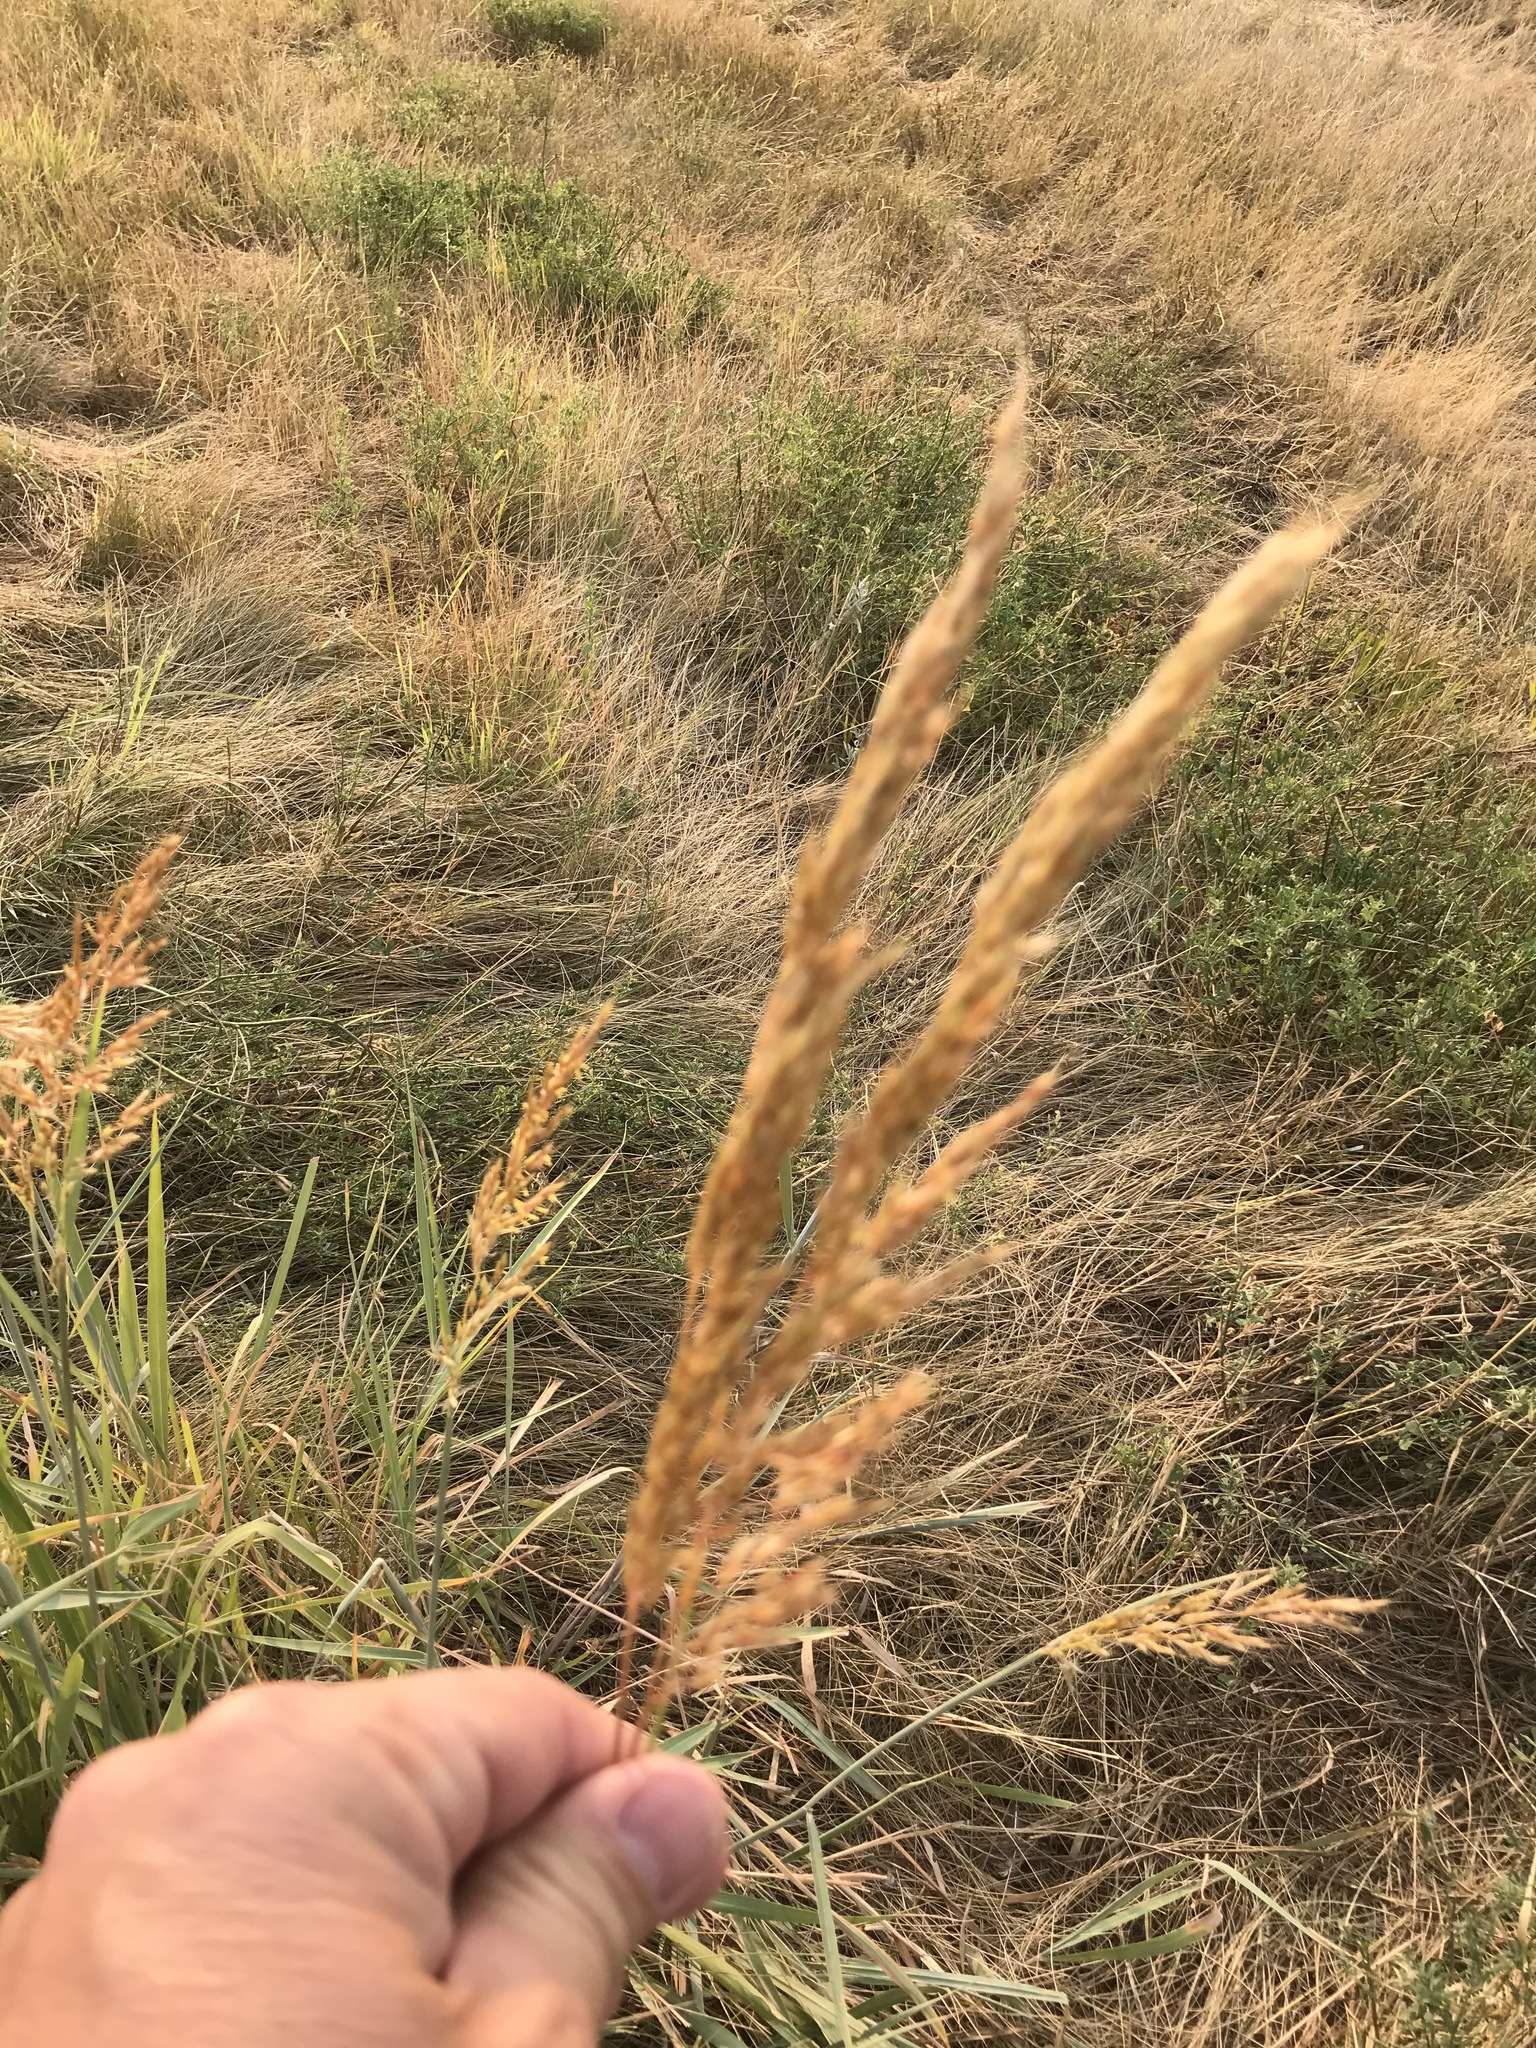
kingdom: Plantae
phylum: Tracheophyta
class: Liliopsida
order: Poales
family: Poaceae
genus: Sorghastrum
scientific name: Sorghastrum nutans
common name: Indian grass
